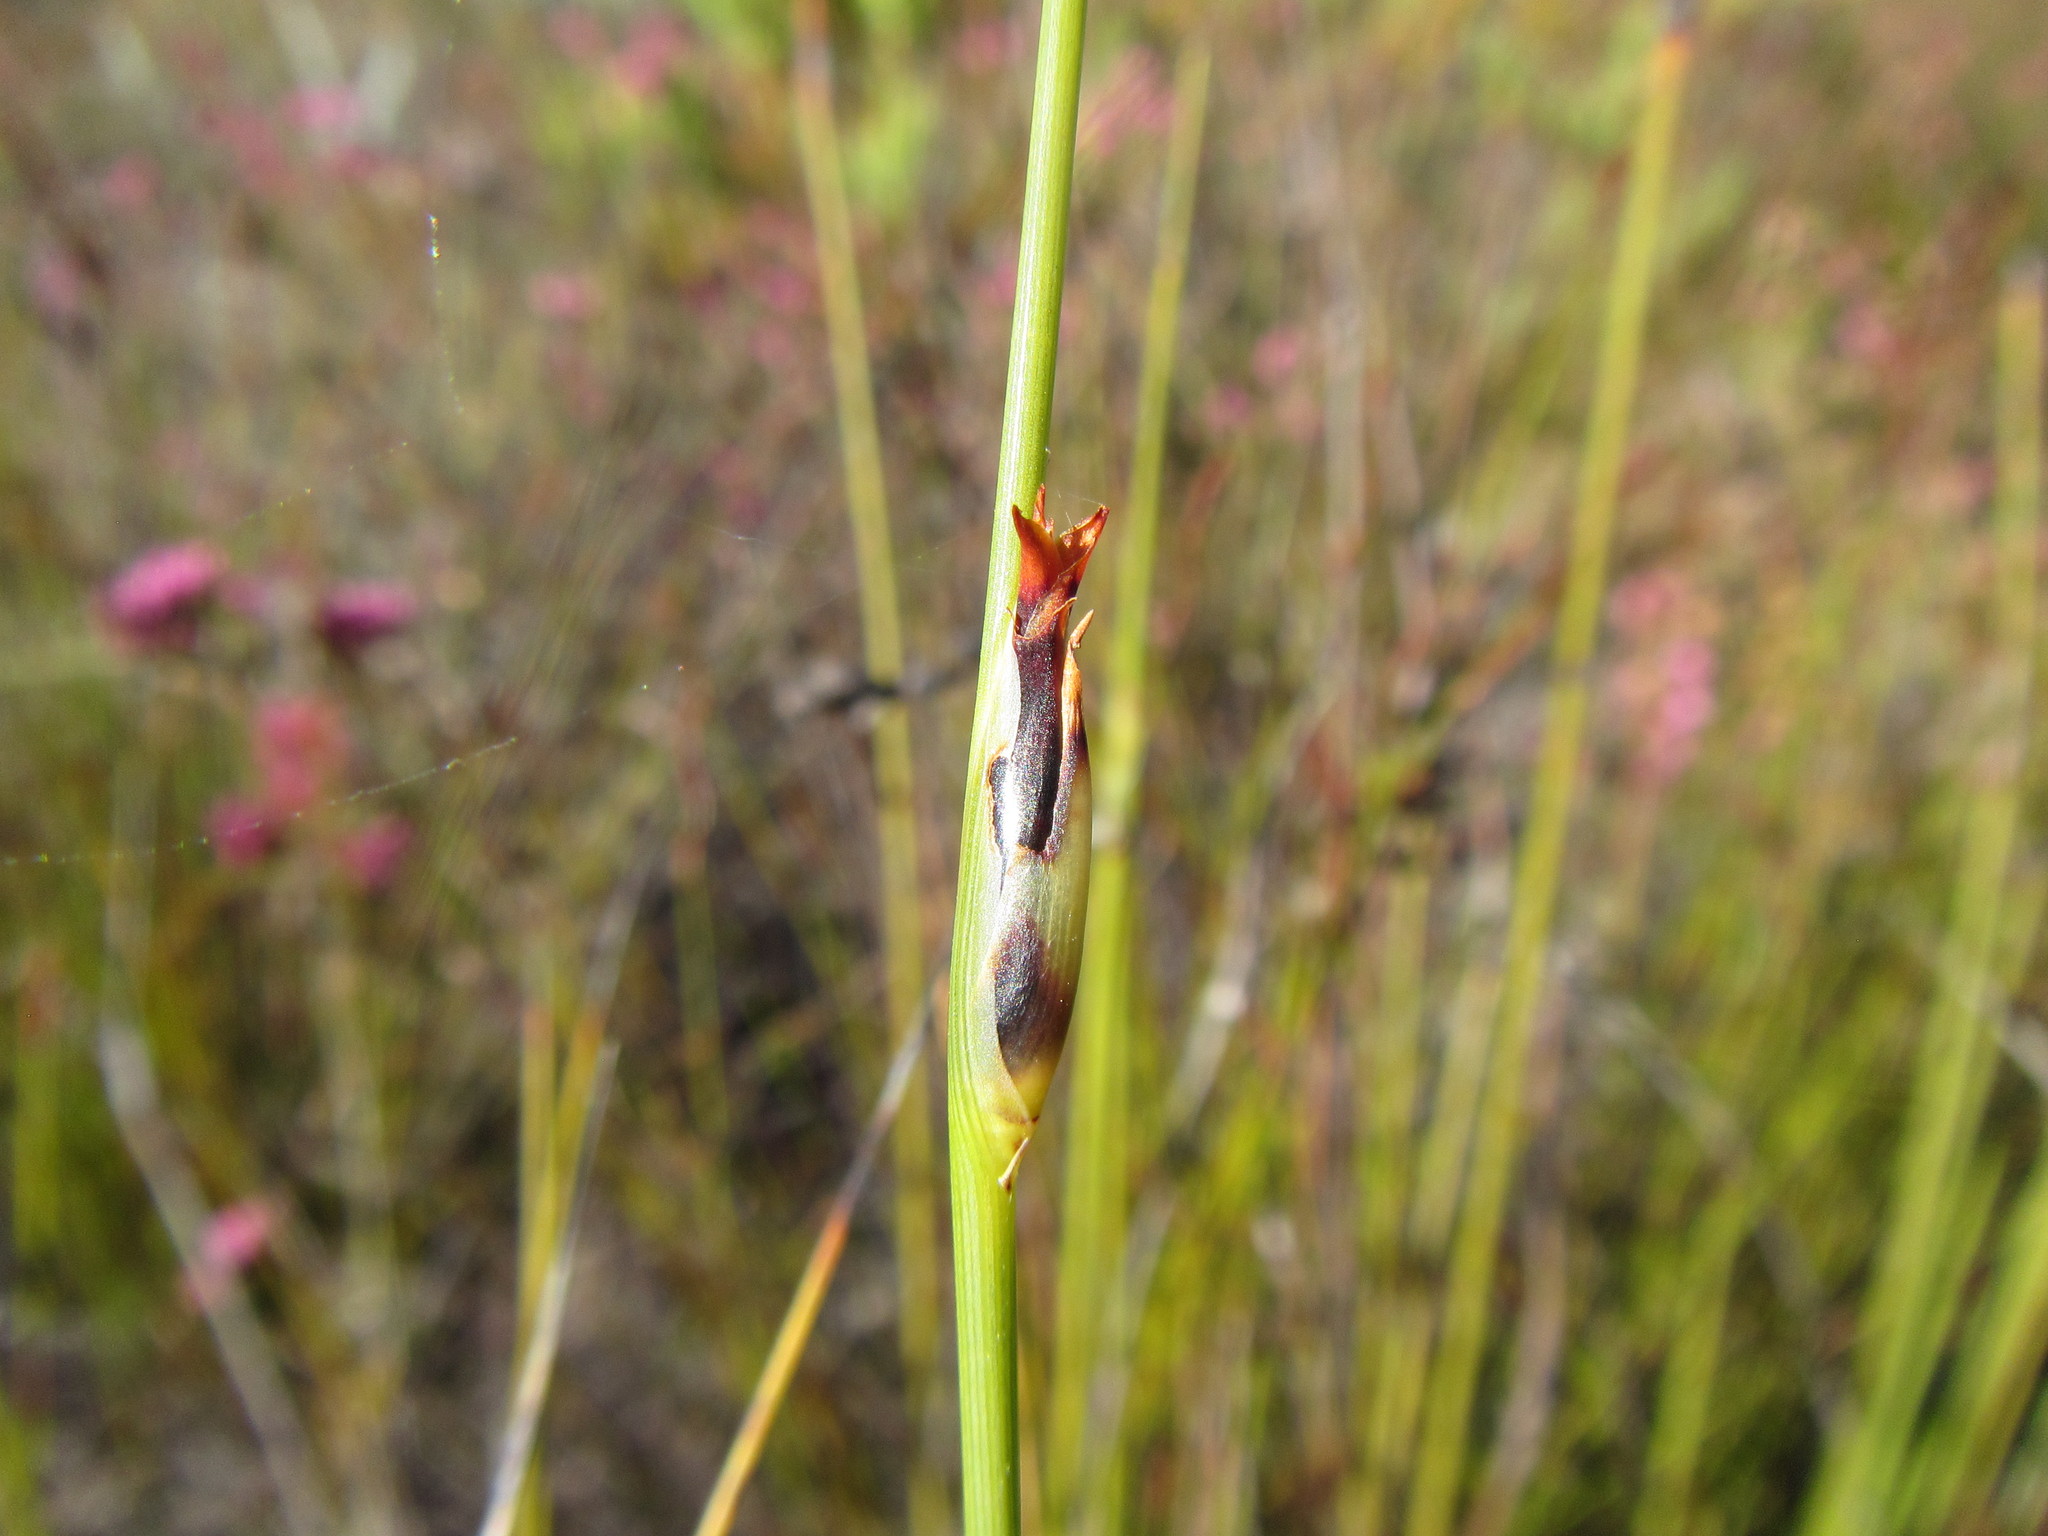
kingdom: Plantae
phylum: Tracheophyta
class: Liliopsida
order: Poales
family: Cyperaceae
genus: Chrysitrix
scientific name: Chrysitrix dodii
